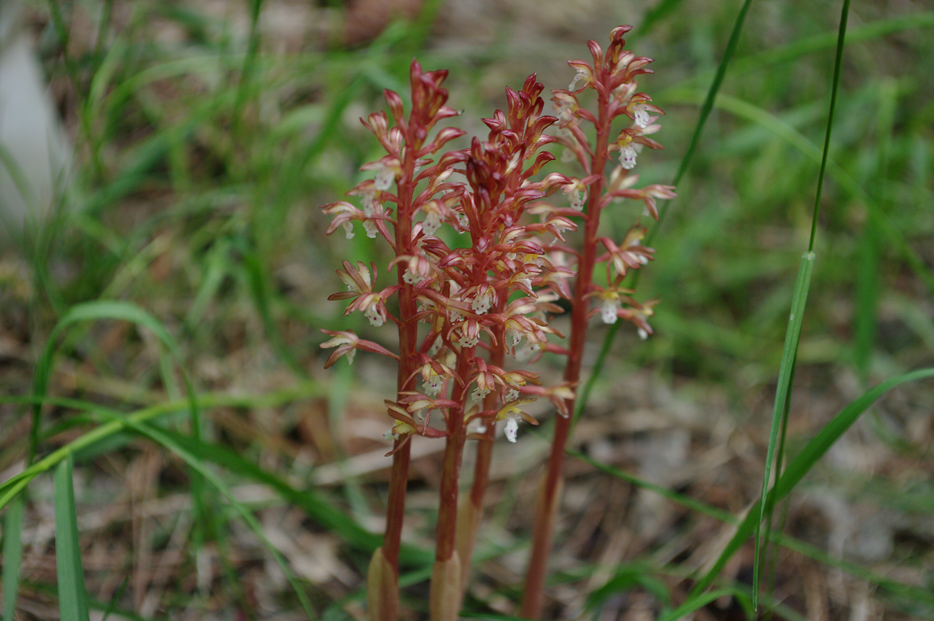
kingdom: Plantae
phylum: Tracheophyta
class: Liliopsida
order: Asparagales
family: Orchidaceae
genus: Corallorhiza
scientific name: Corallorhiza maculata
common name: Spotted coralroot
